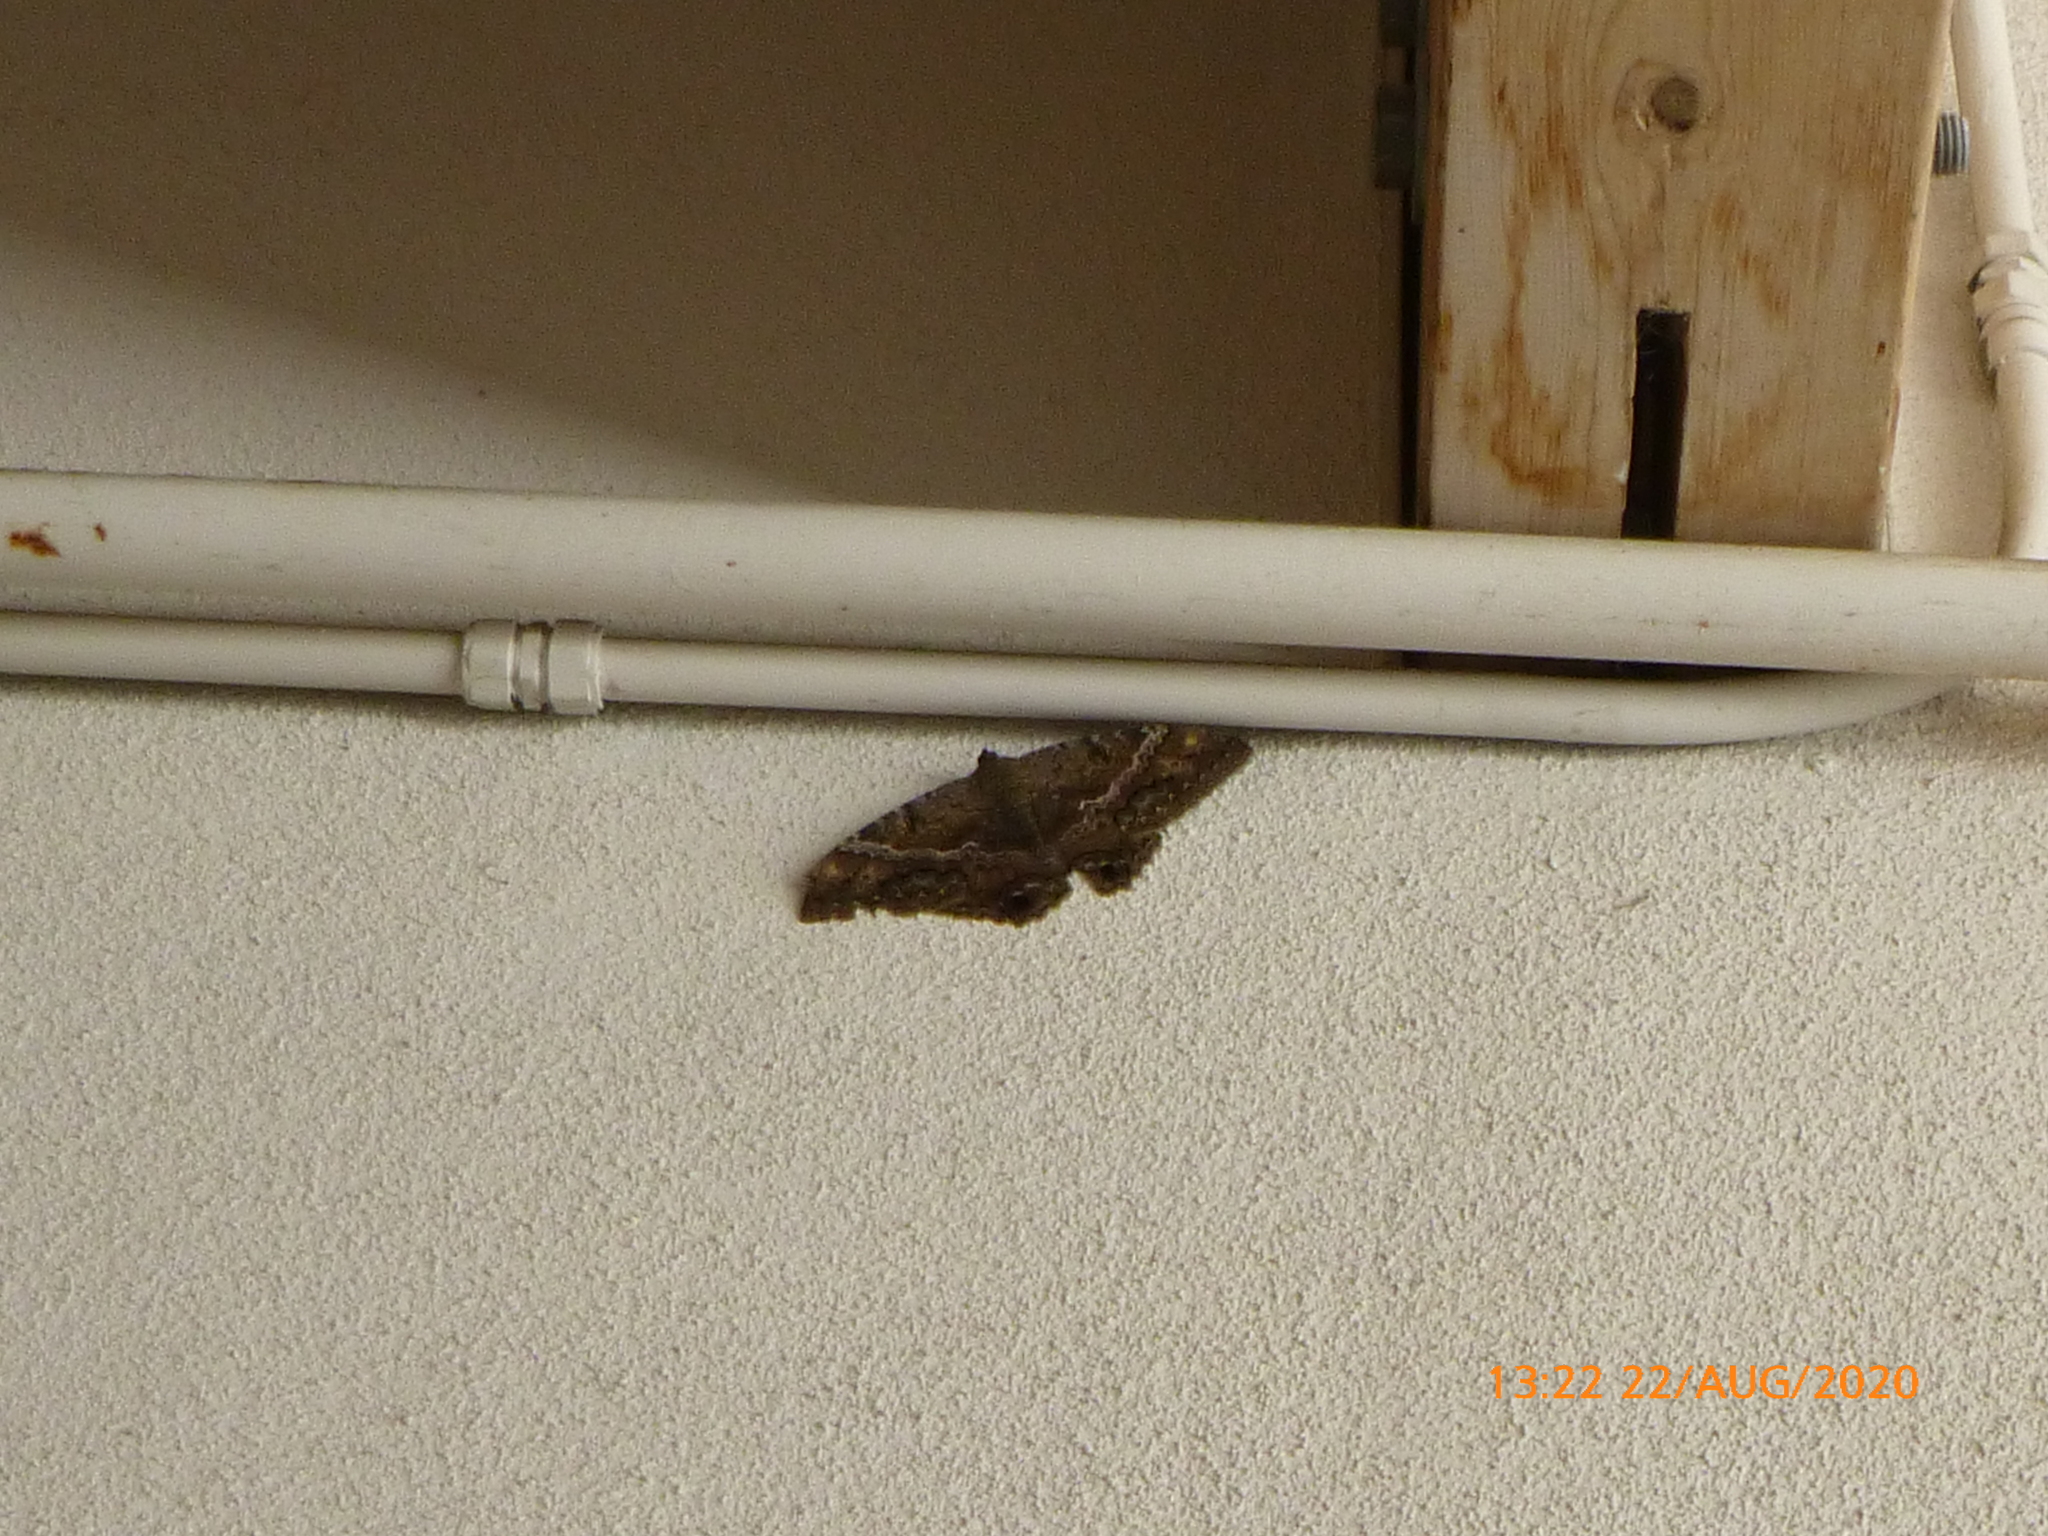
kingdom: Animalia
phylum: Arthropoda
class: Insecta
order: Lepidoptera
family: Erebidae
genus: Ascalapha
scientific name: Ascalapha odorata
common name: Black witch
